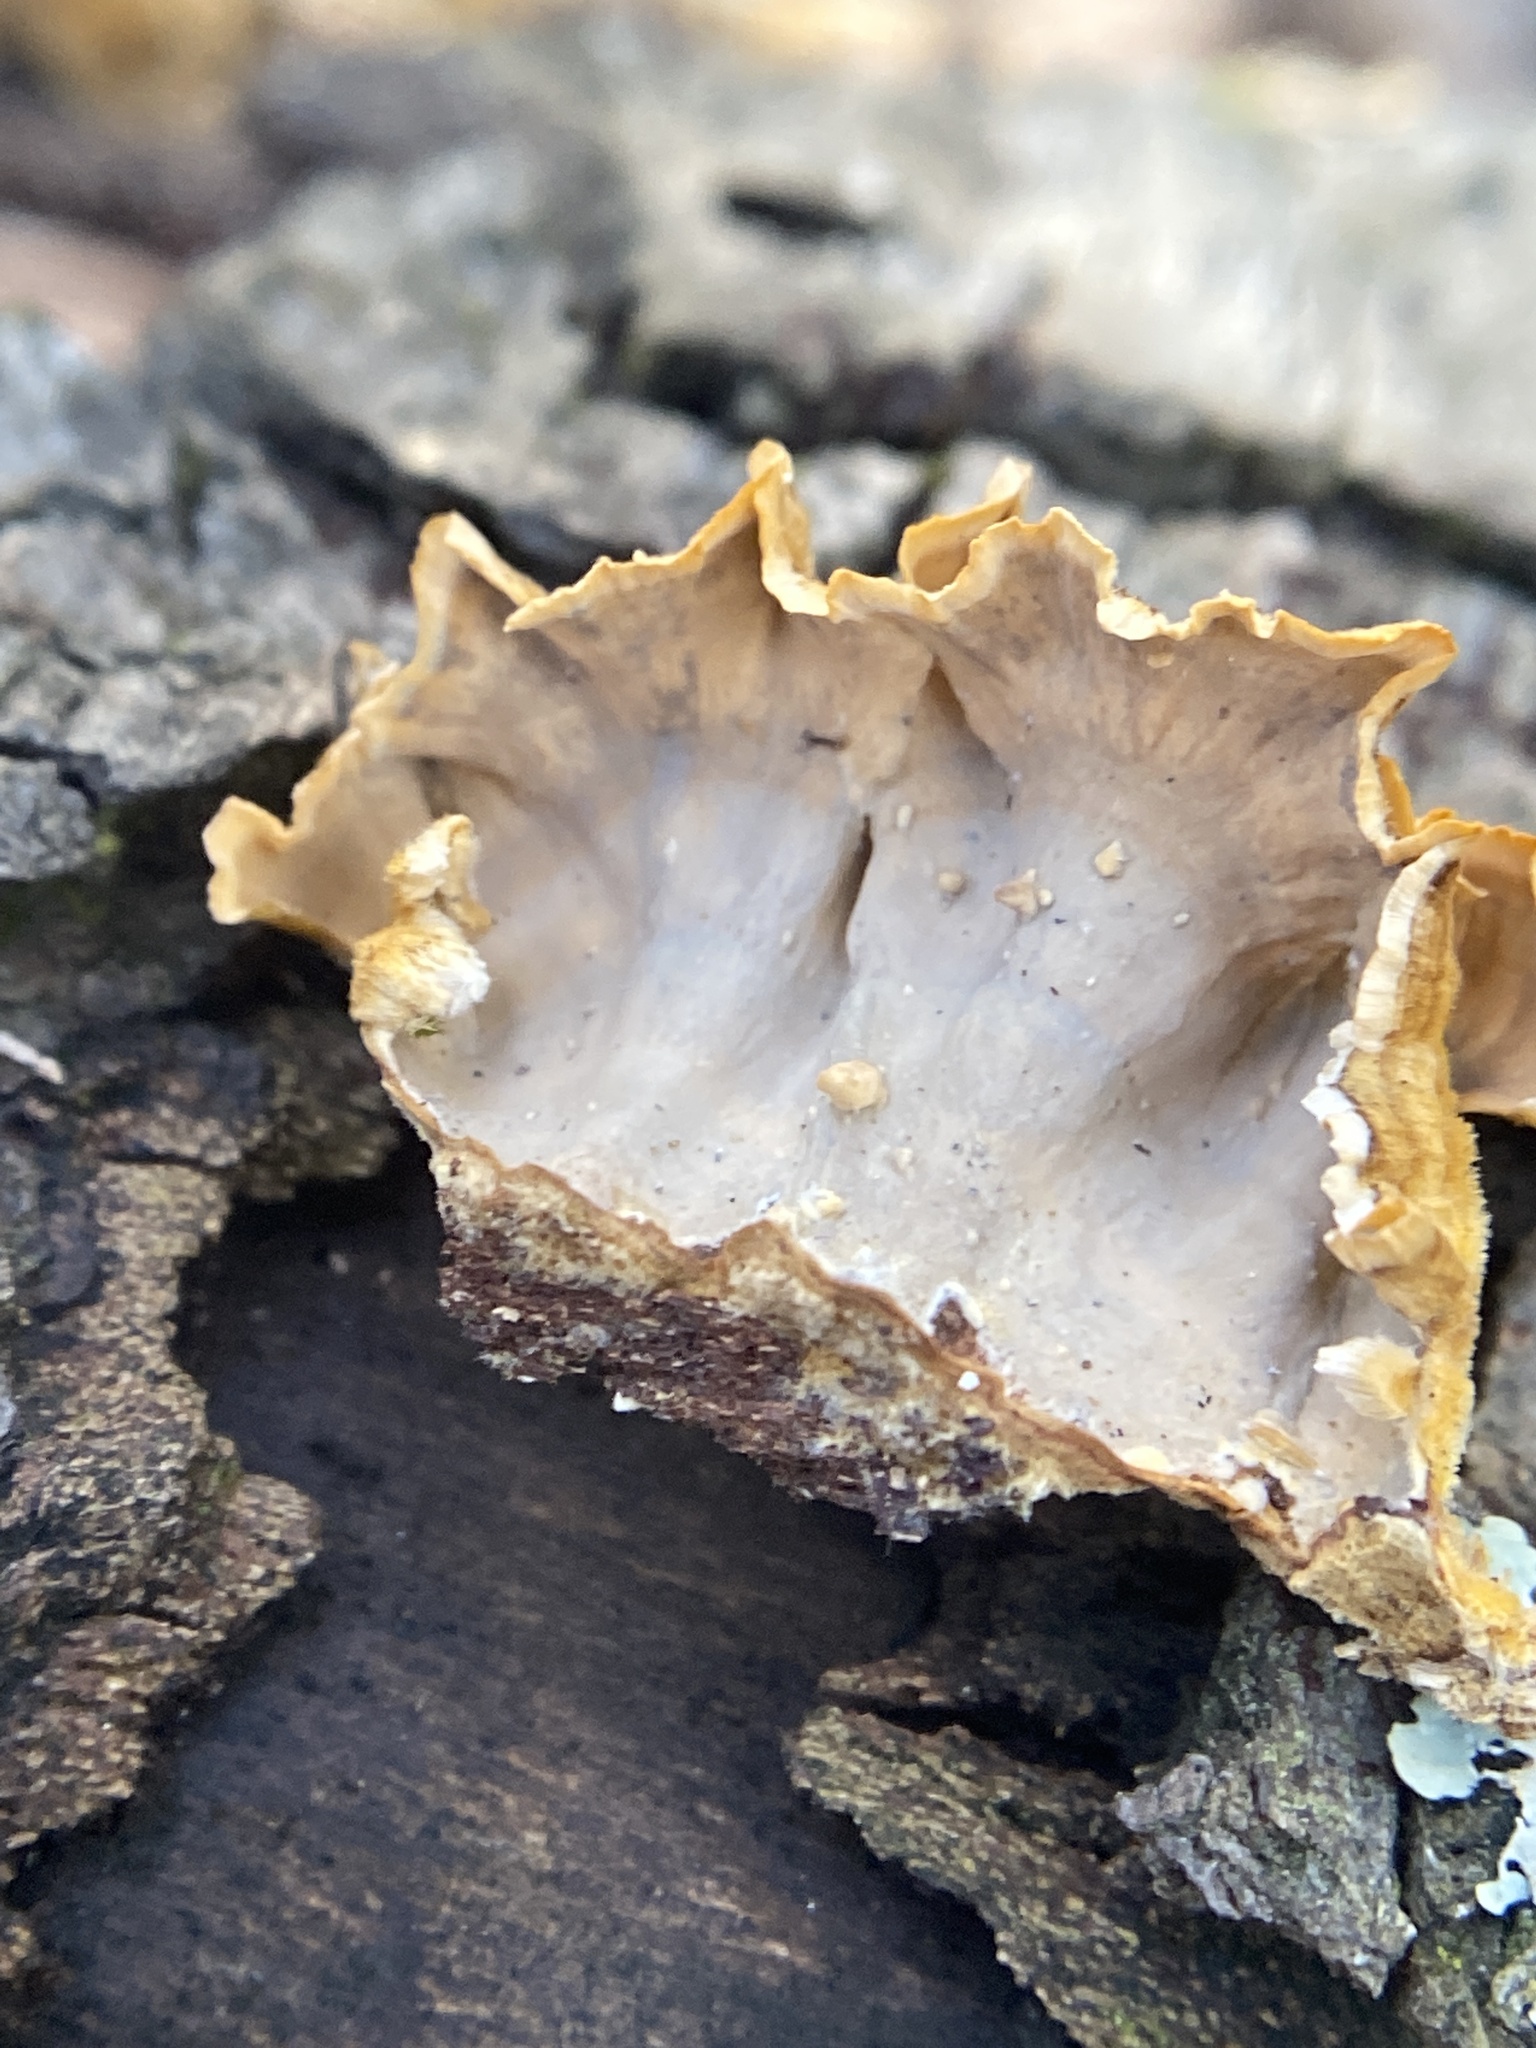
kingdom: Fungi
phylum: Basidiomycota
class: Agaricomycetes
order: Russulales
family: Stereaceae
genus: Stereum
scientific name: Stereum complicatum
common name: Crowded parchment
